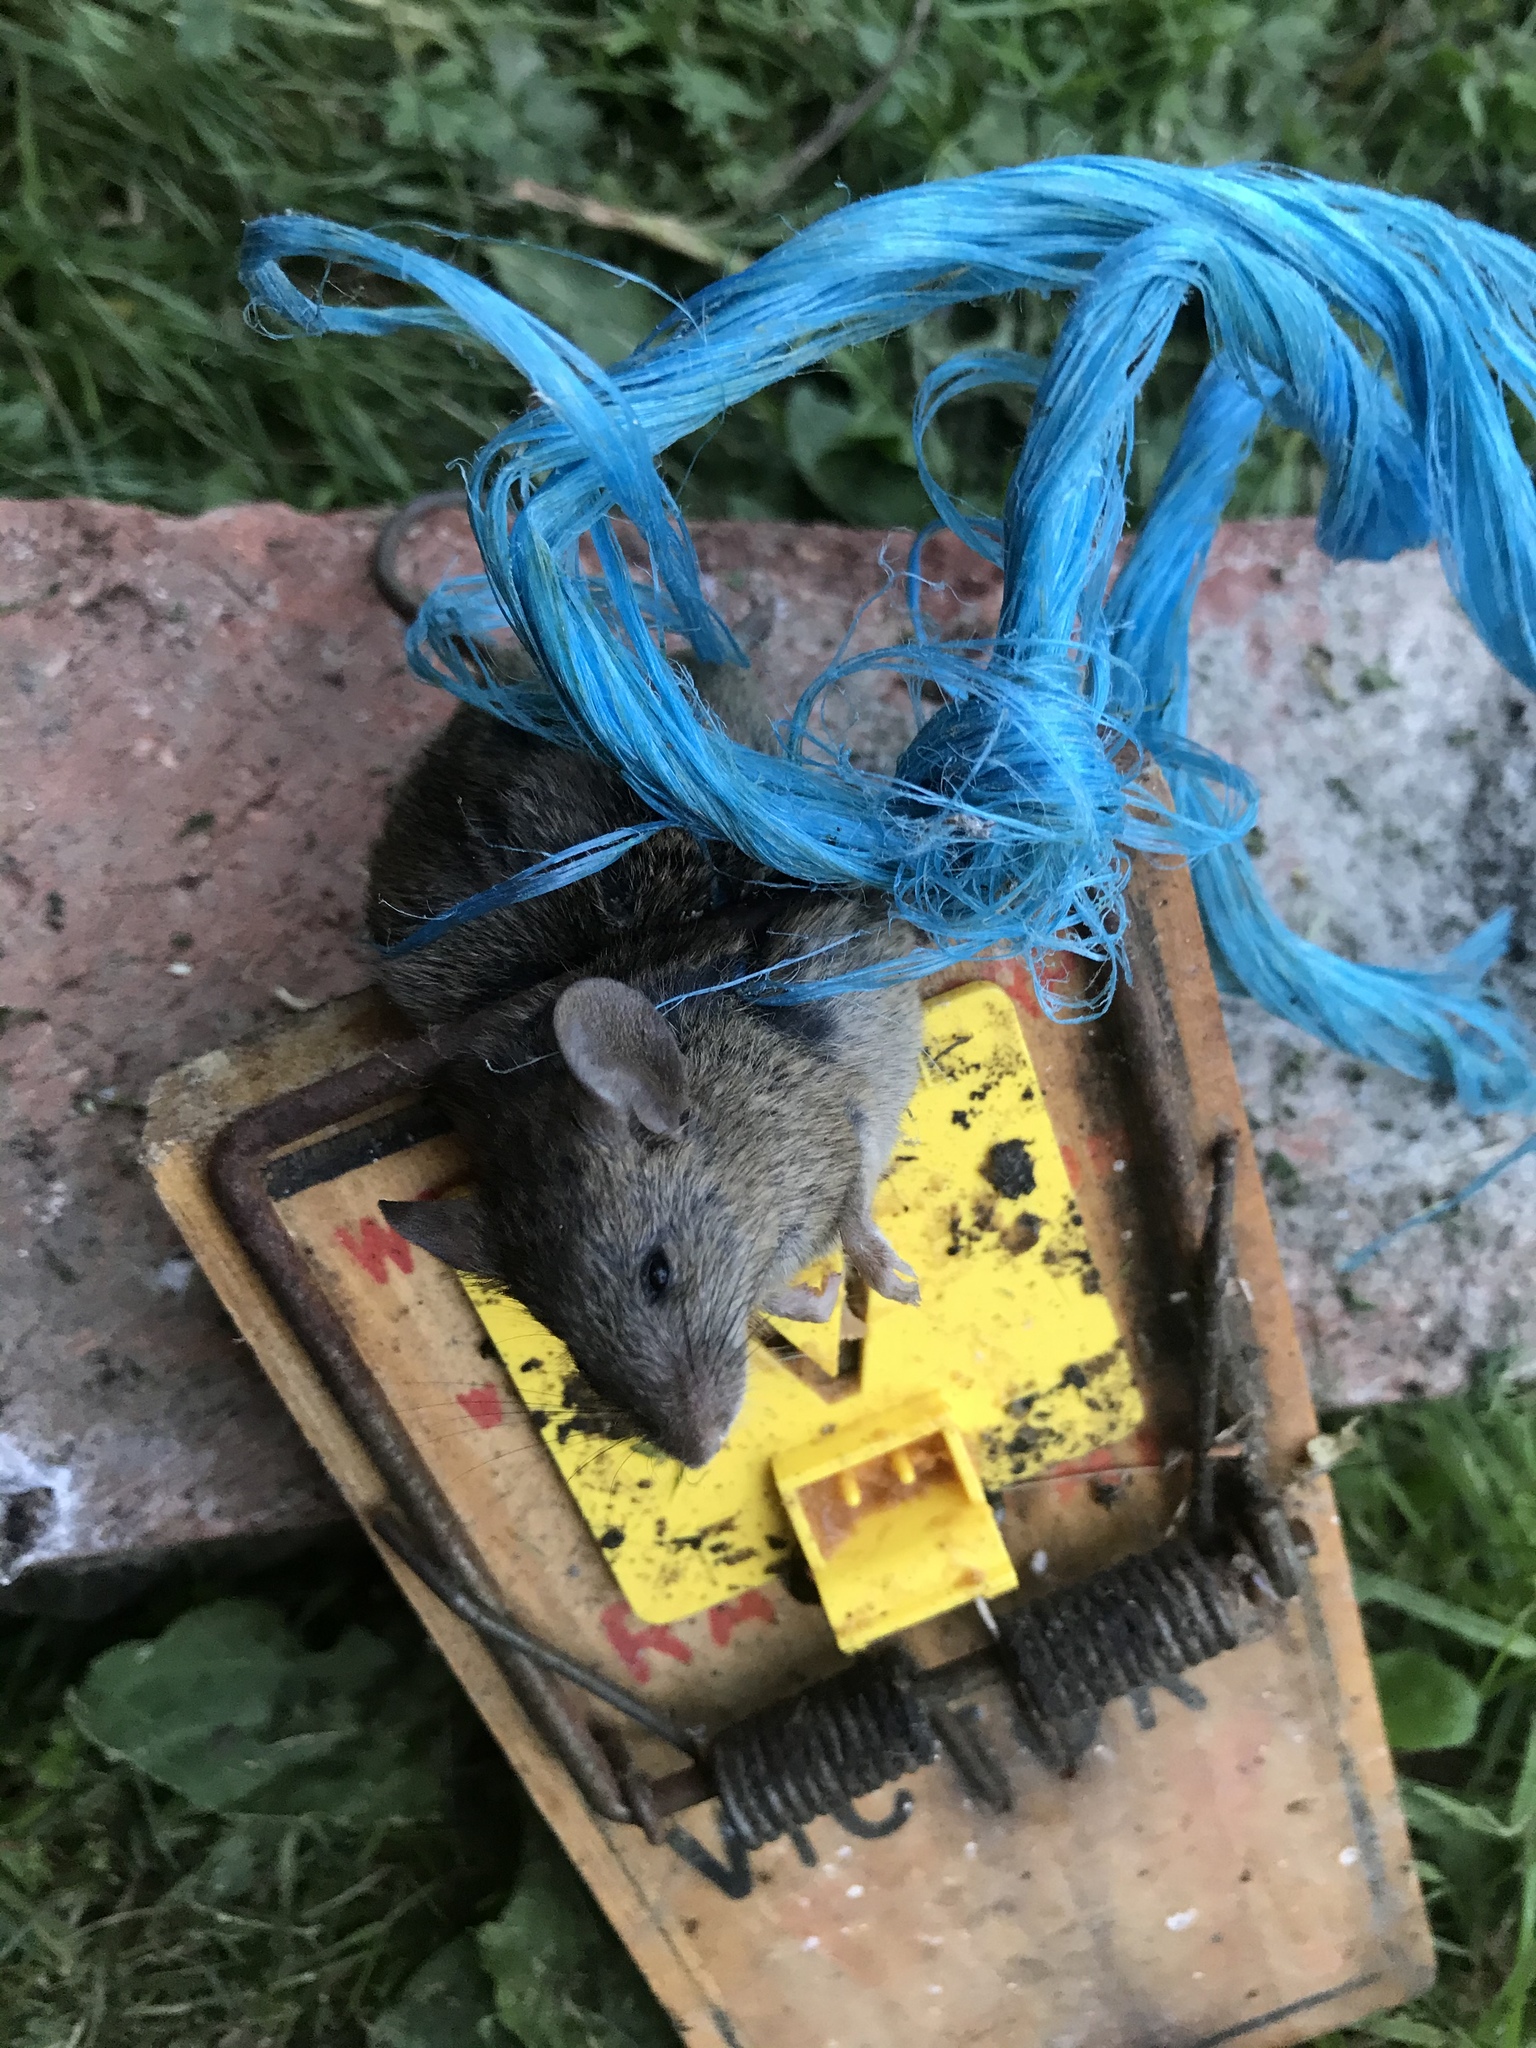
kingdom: Animalia
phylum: Chordata
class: Mammalia
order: Rodentia
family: Muridae
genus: Mus
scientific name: Mus musculus
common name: House mouse
